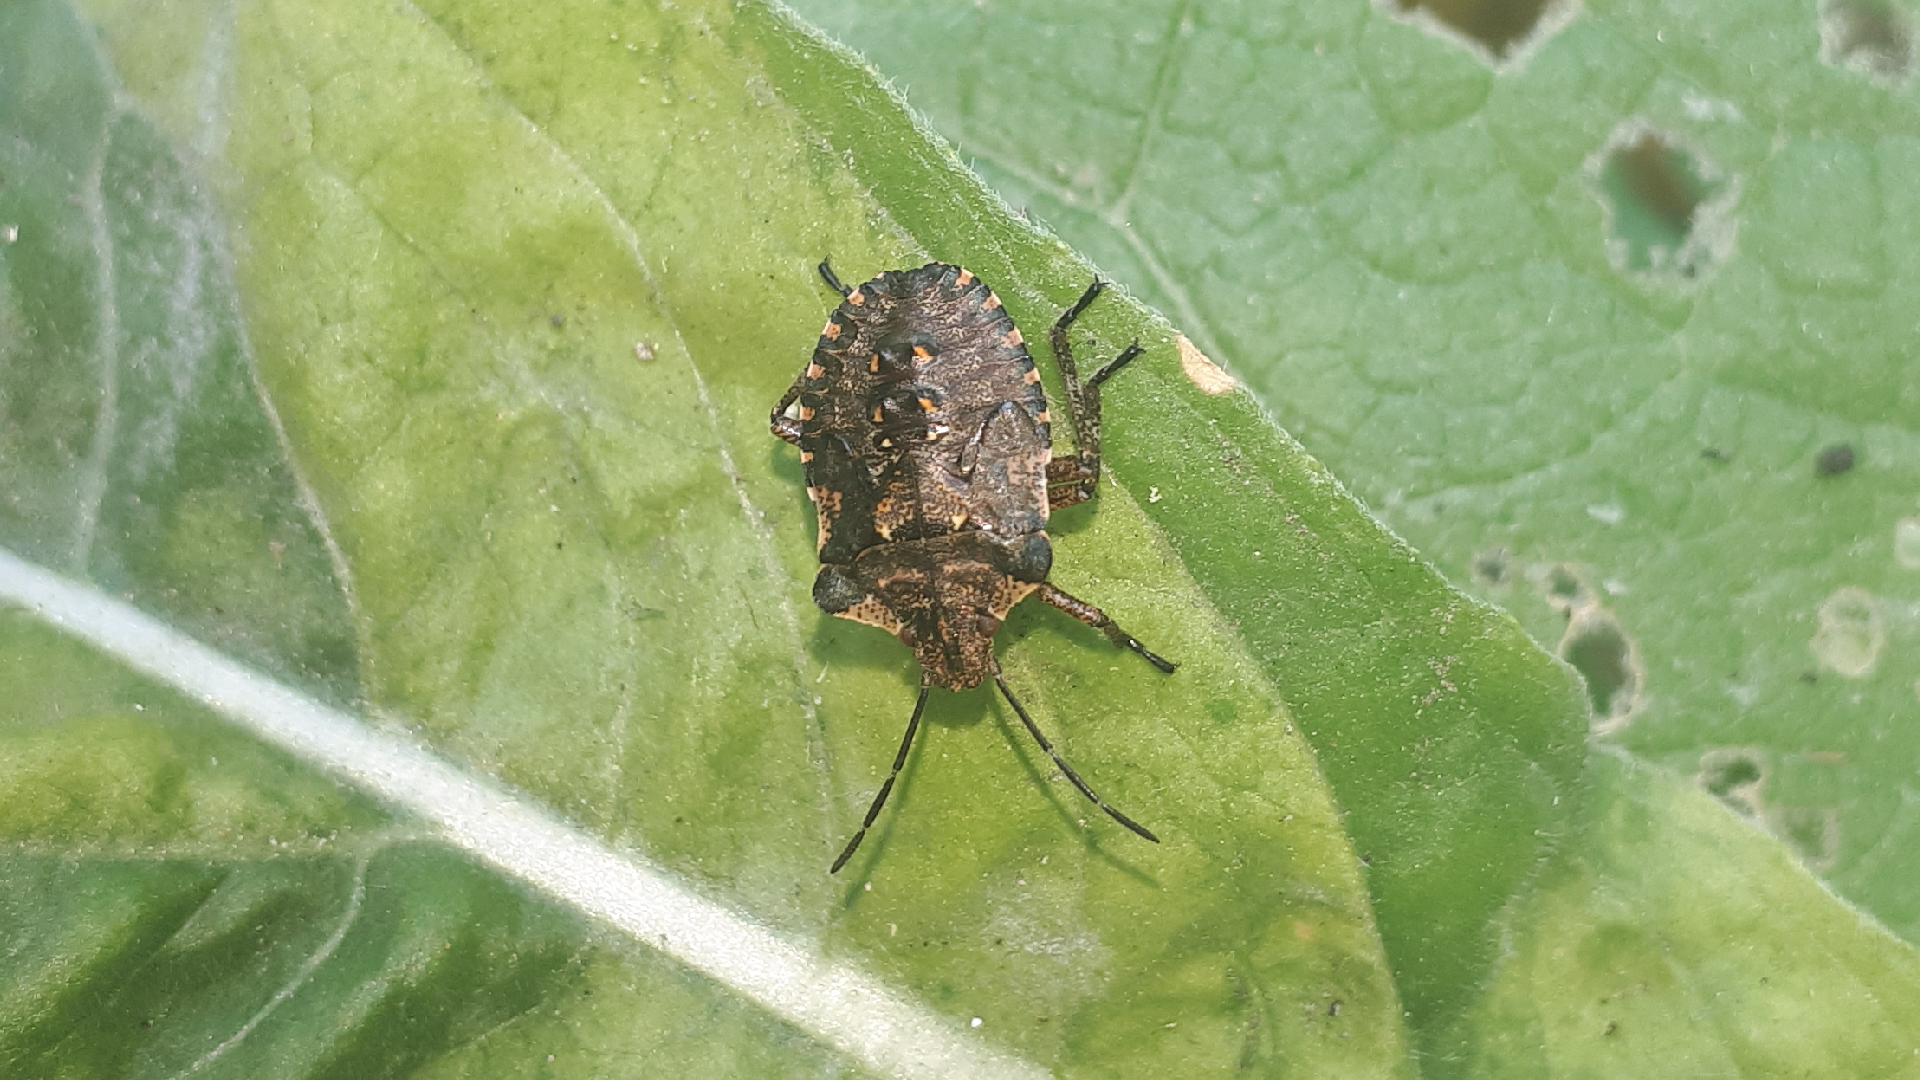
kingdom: Animalia
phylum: Arthropoda
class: Insecta
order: Hemiptera
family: Pentatomidae
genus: Pentatoma
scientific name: Pentatoma rufipes
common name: Forest bug
